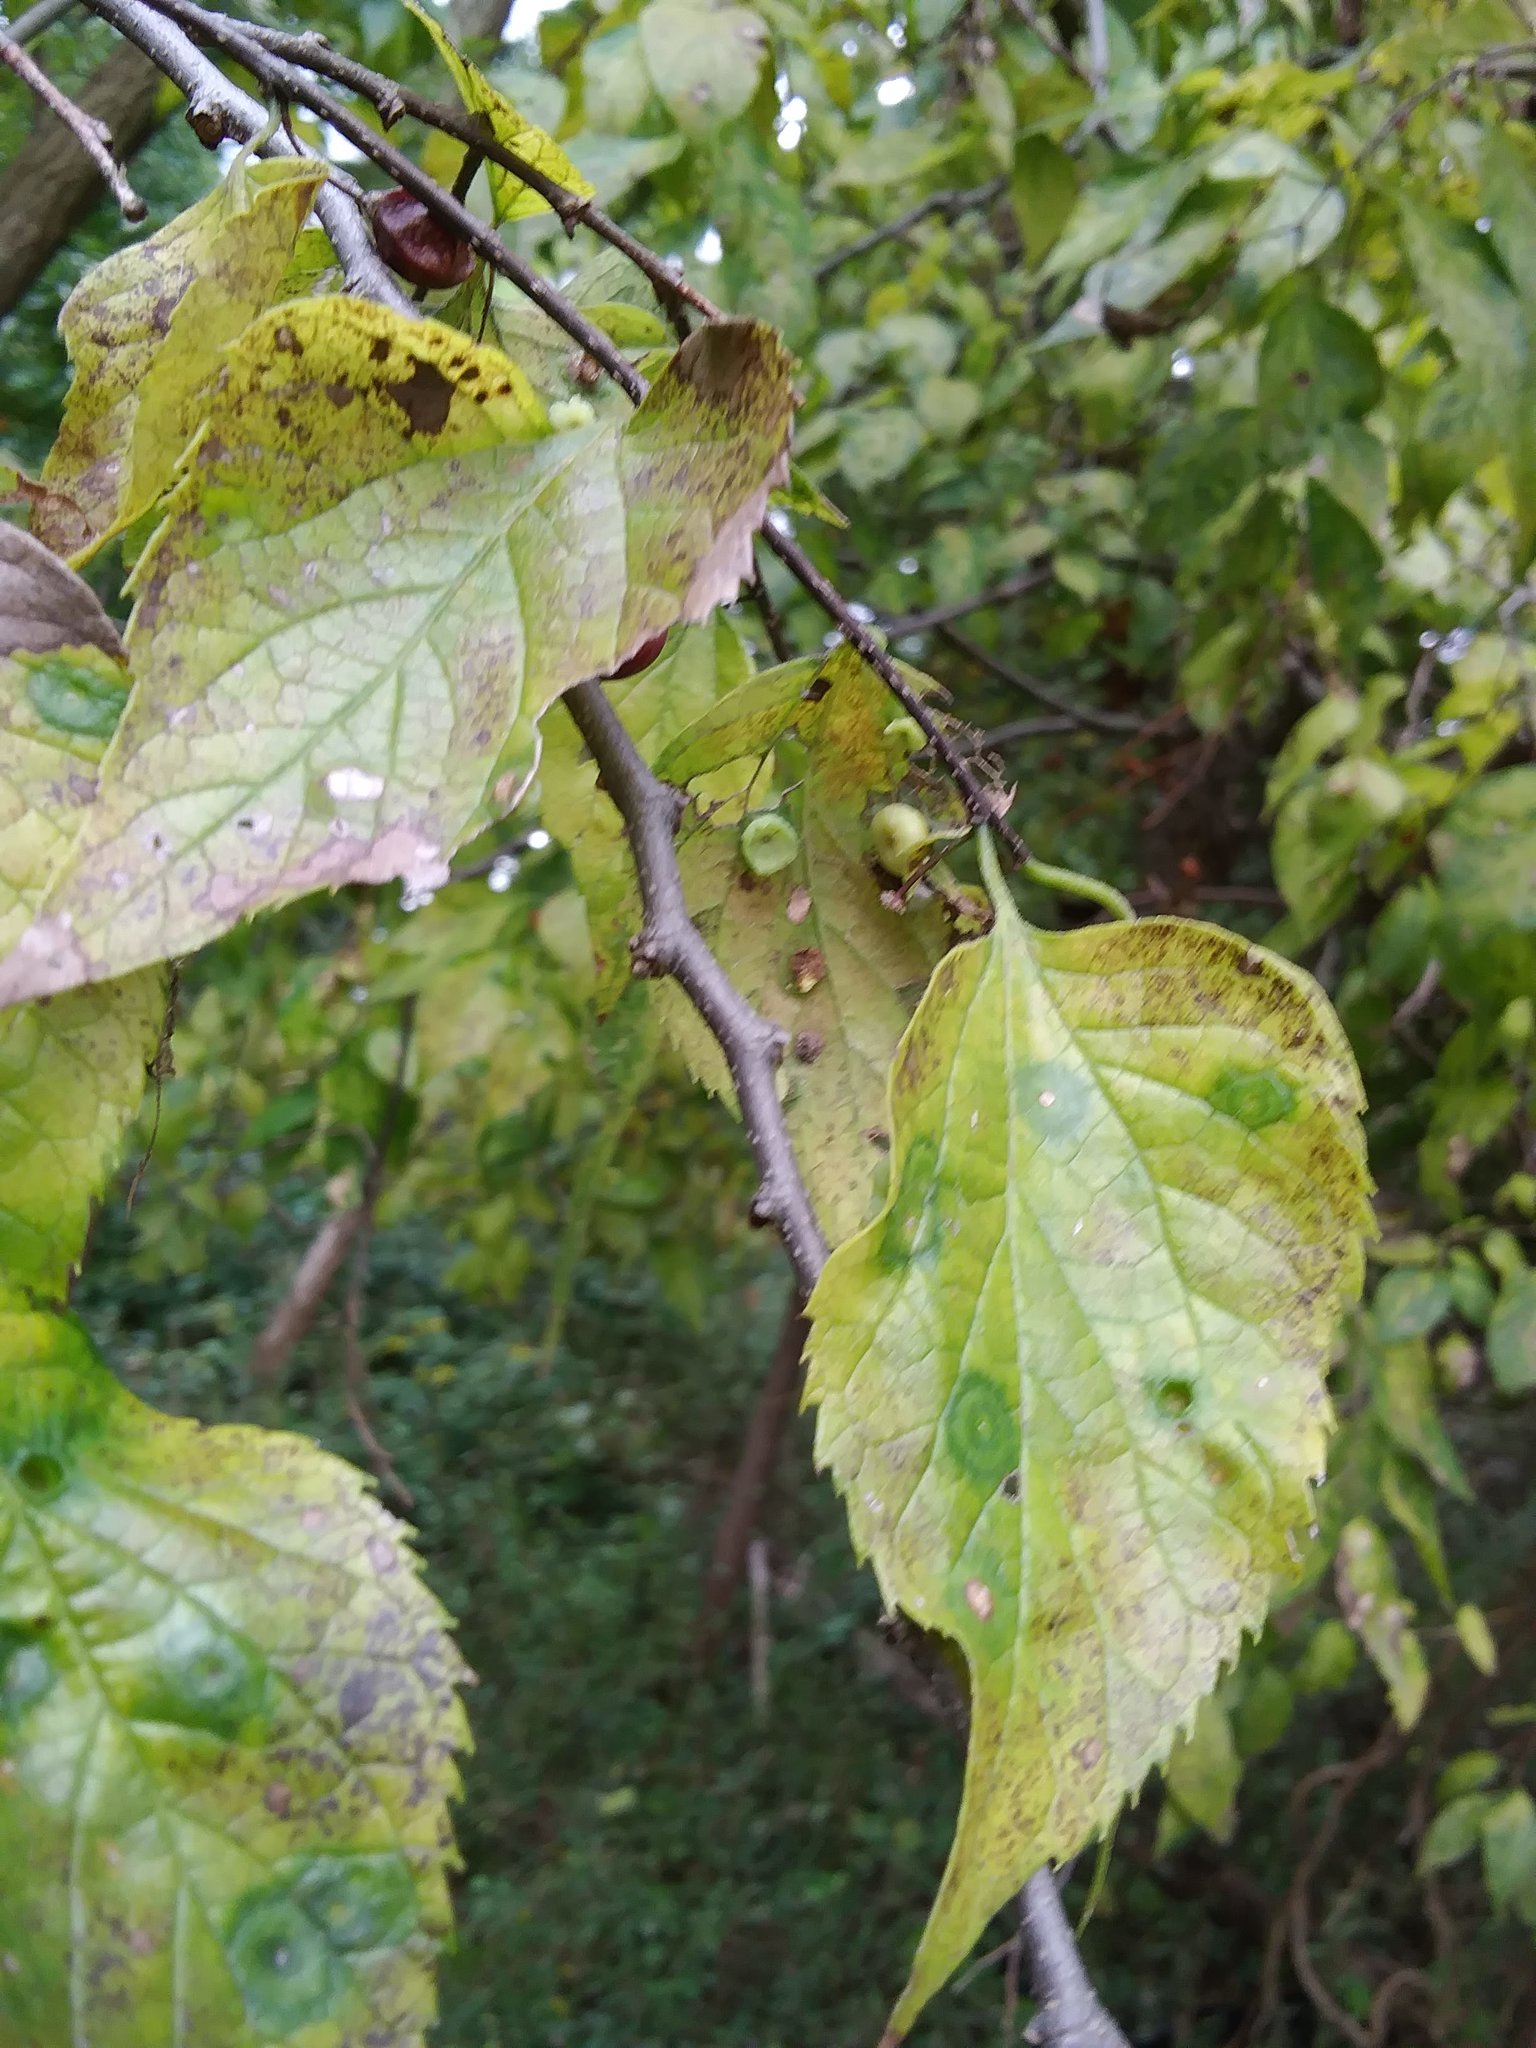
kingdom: Animalia
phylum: Arthropoda
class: Insecta
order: Hemiptera
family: Aphalaridae
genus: Pachypsylla
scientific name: Pachypsylla celtidismamma
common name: Hackberry nipplegall psyllid
